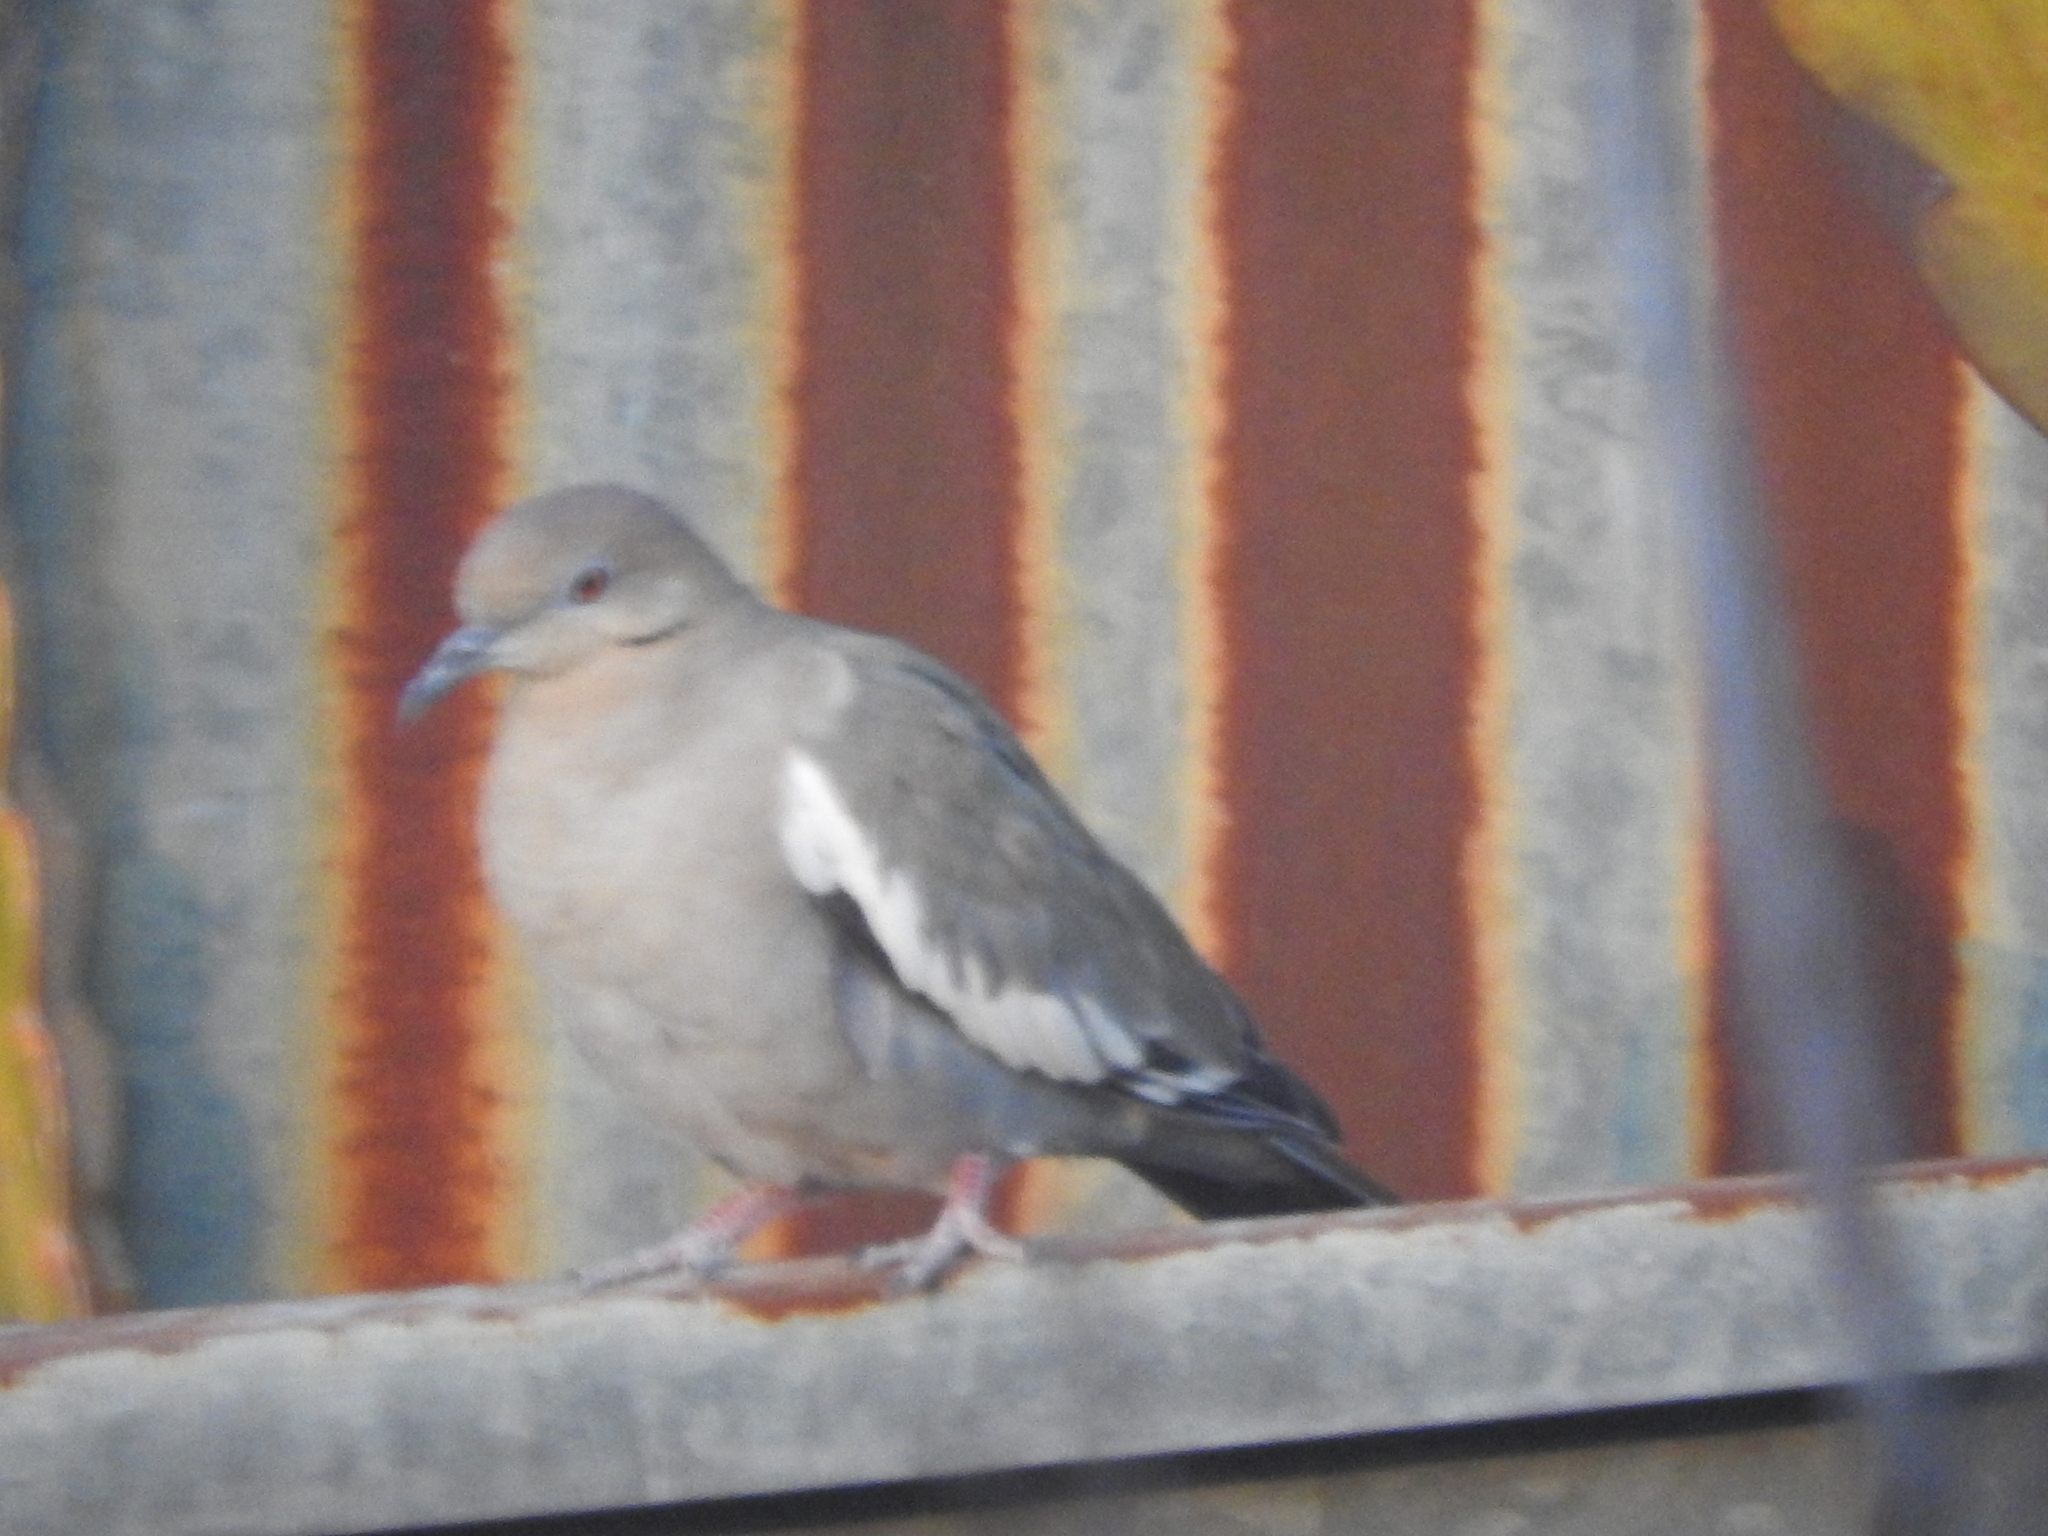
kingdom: Animalia
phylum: Chordata
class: Aves
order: Columbiformes
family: Columbidae
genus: Zenaida
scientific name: Zenaida asiatica
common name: White-winged dove
